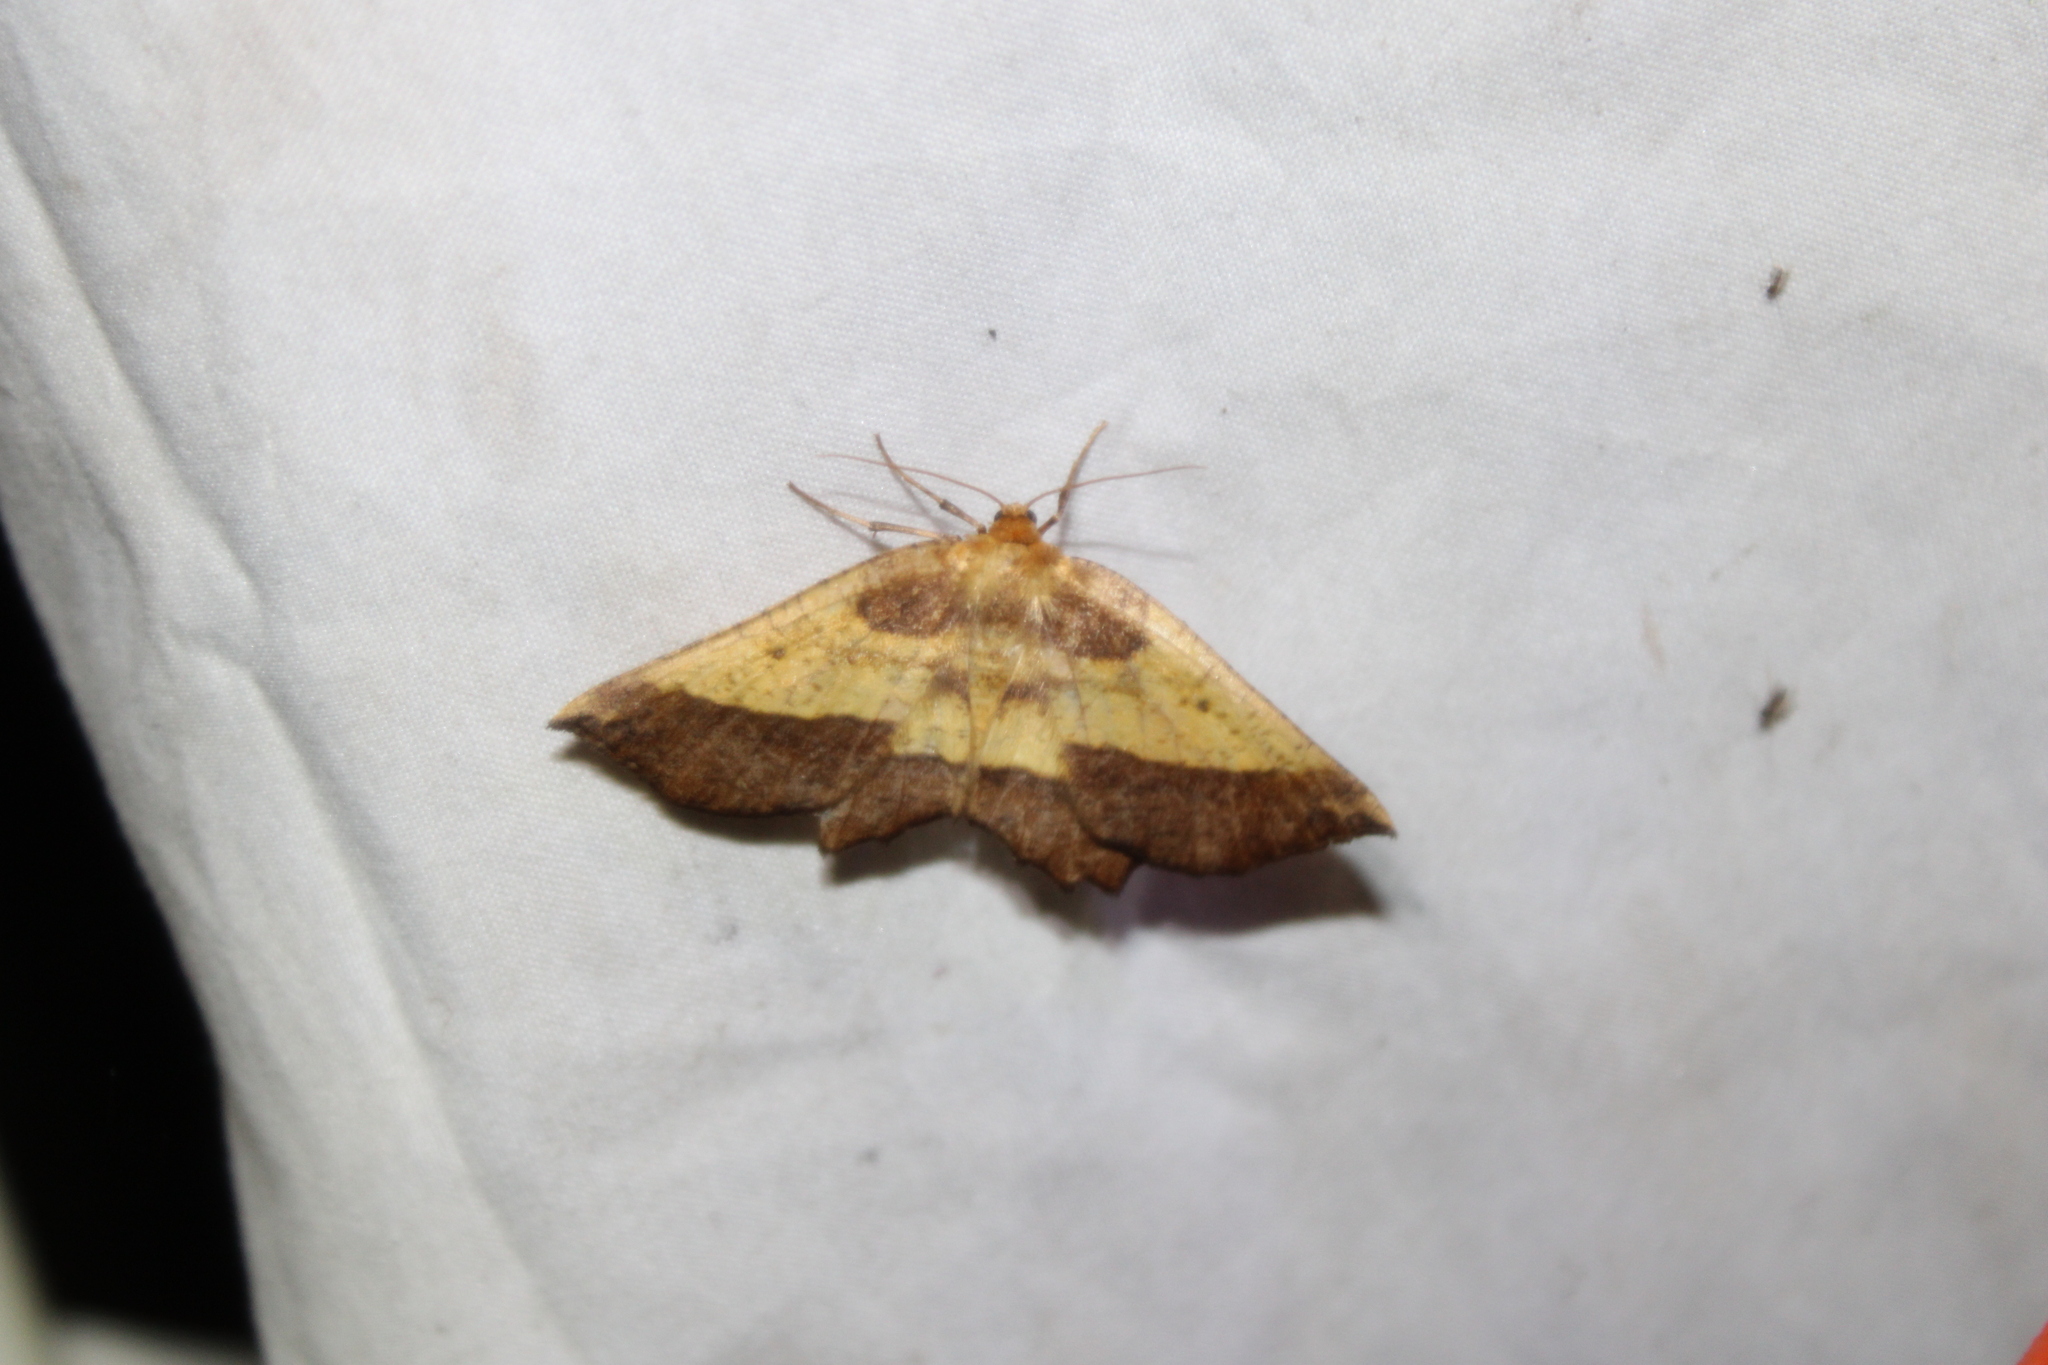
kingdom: Animalia
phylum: Arthropoda
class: Insecta
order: Lepidoptera
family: Geometridae
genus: Euchlaena
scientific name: Euchlaena serrata
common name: Saw wing
